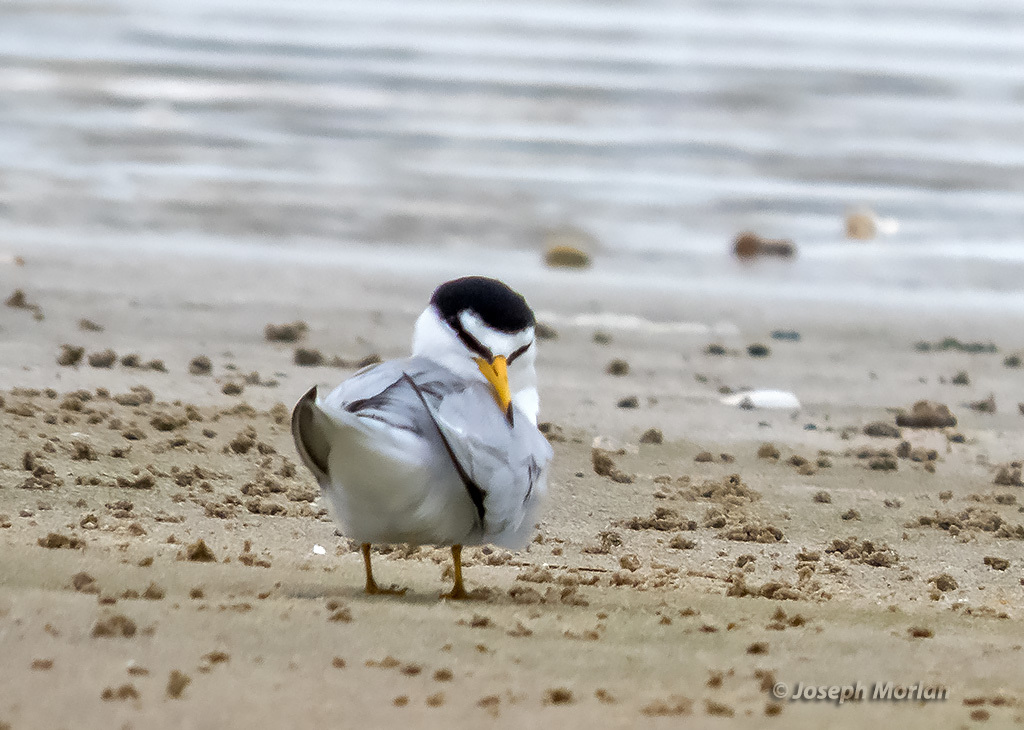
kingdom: Animalia
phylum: Chordata
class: Aves
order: Charadriiformes
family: Laridae
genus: Sternula
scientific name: Sternula antillarum
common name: Least tern
